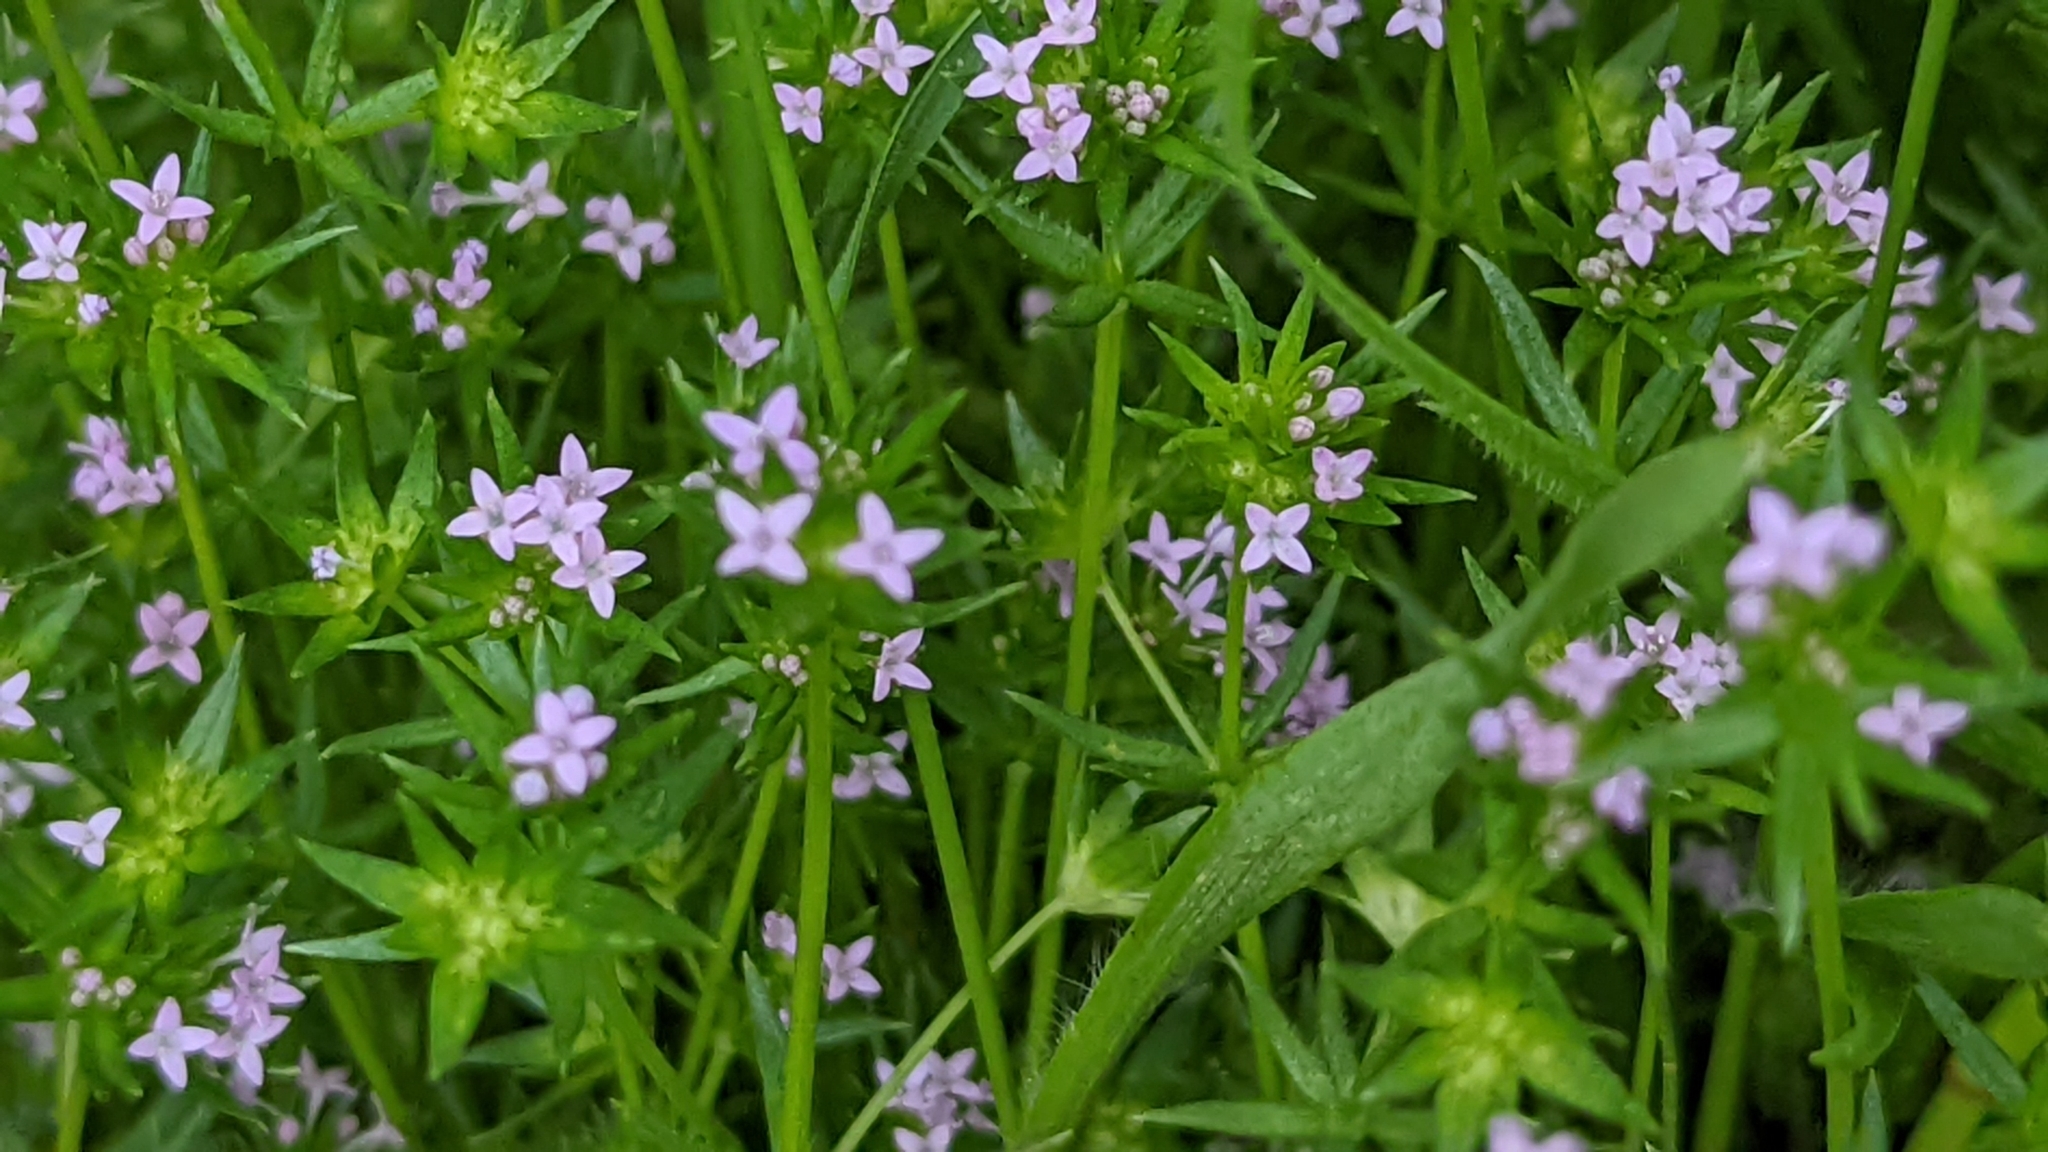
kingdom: Plantae
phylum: Tracheophyta
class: Magnoliopsida
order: Gentianales
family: Rubiaceae
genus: Sherardia
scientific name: Sherardia arvensis
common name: Field madder
